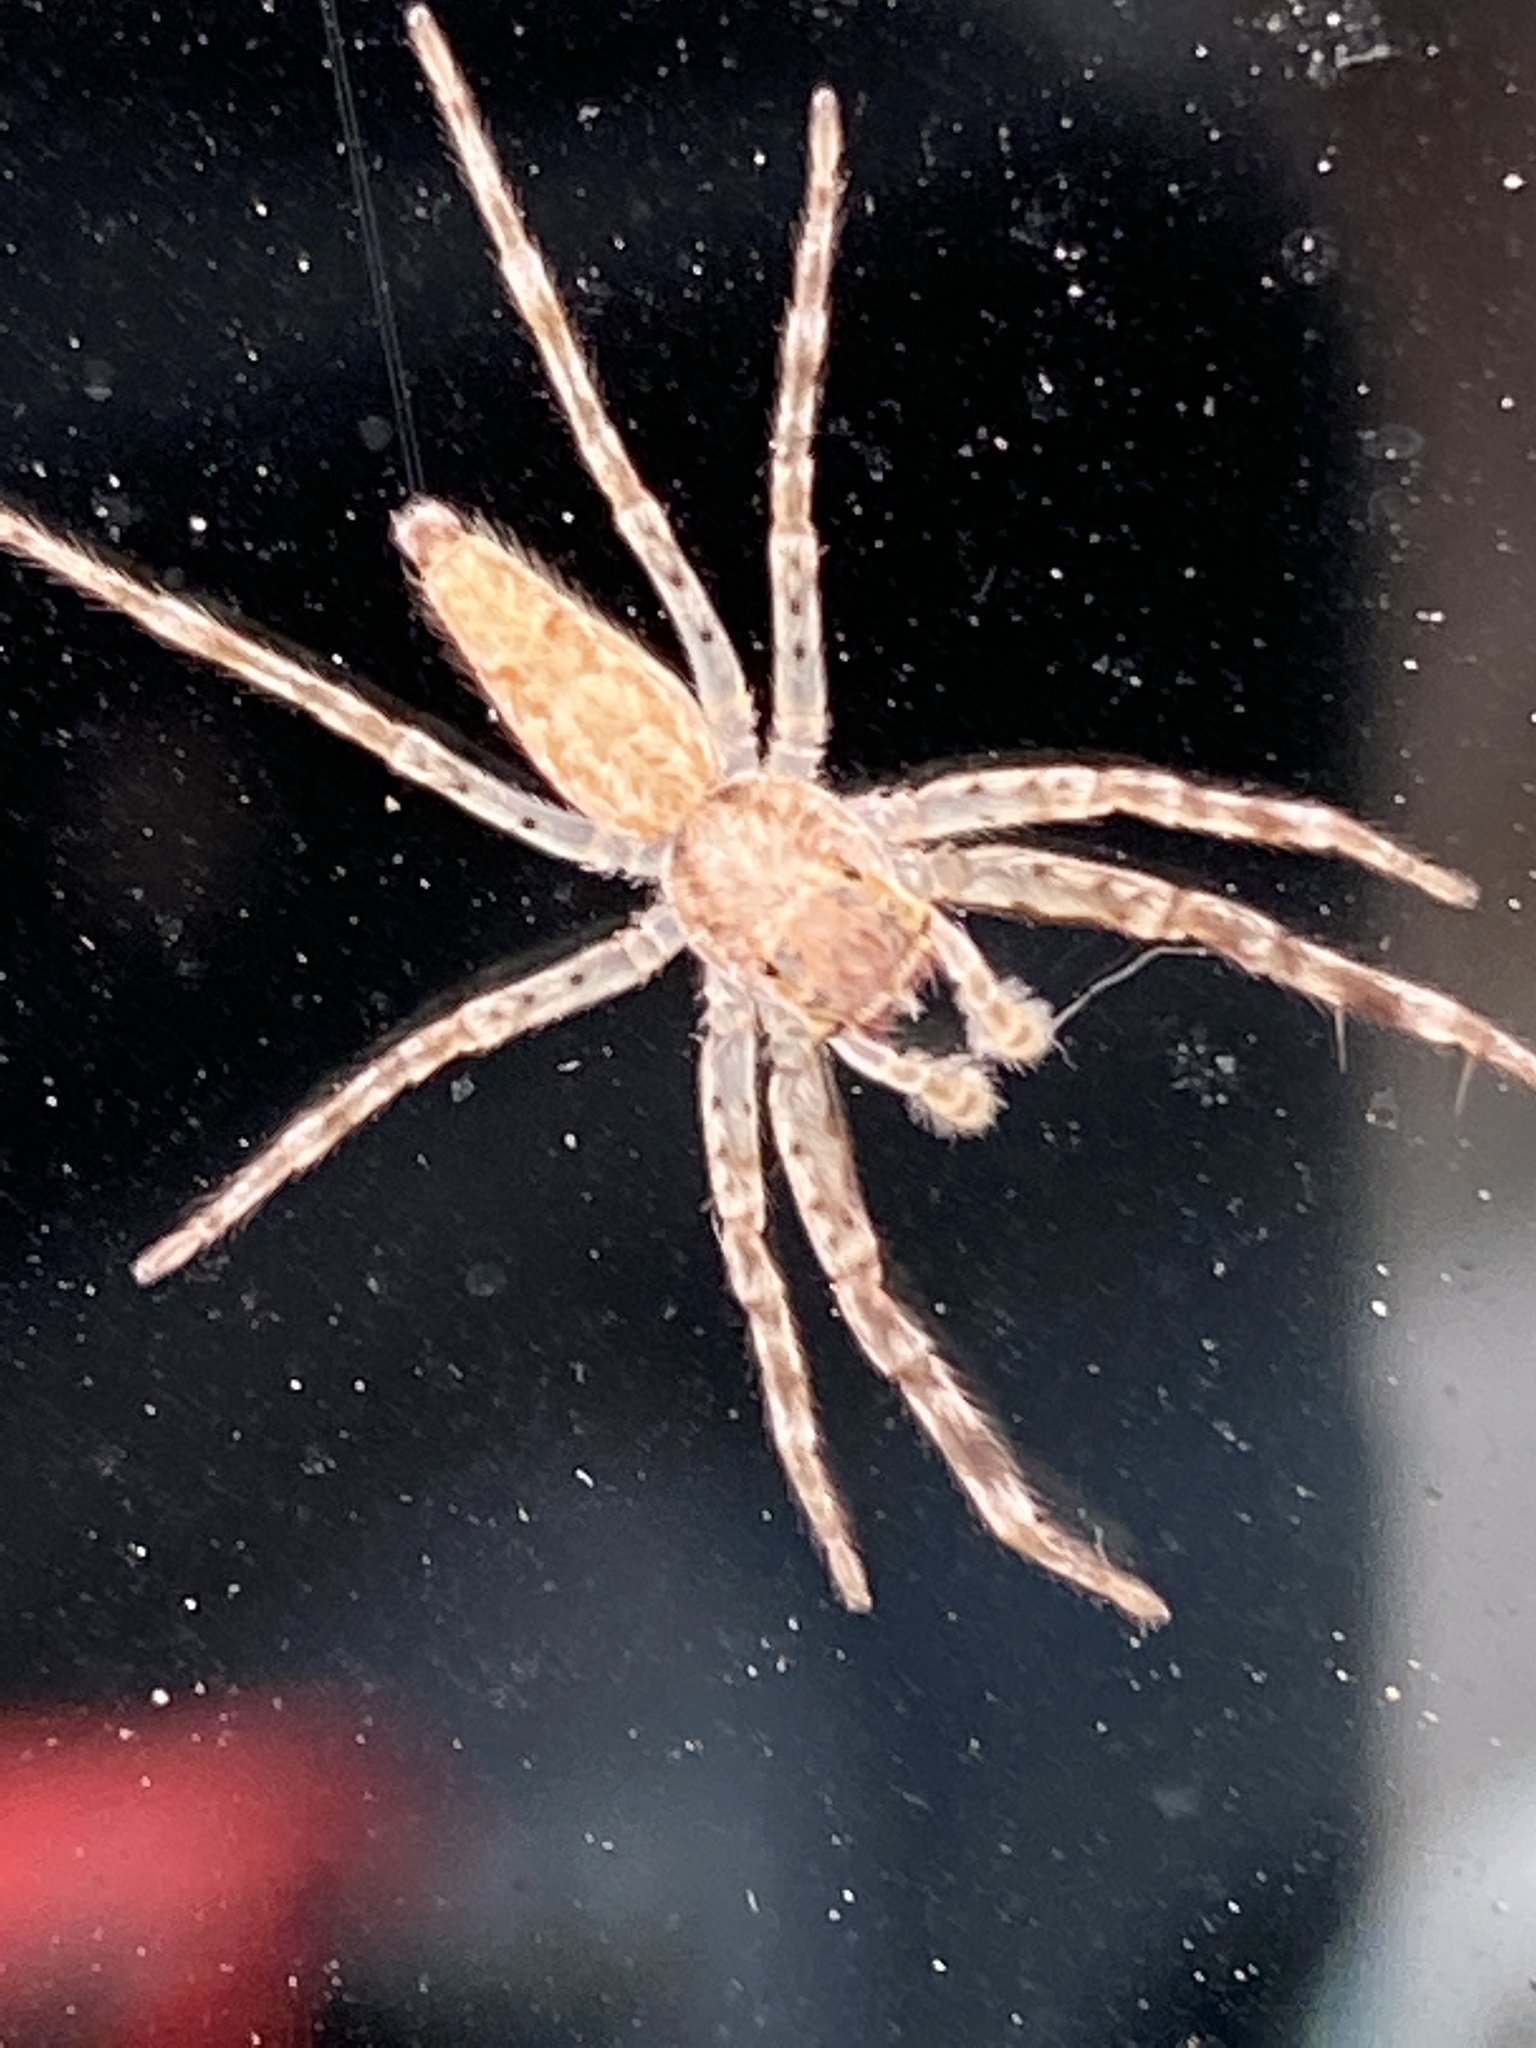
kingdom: Animalia
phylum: Arthropoda
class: Arachnida
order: Araneae
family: Salticidae
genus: Helpis
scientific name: Helpis minitabunda
